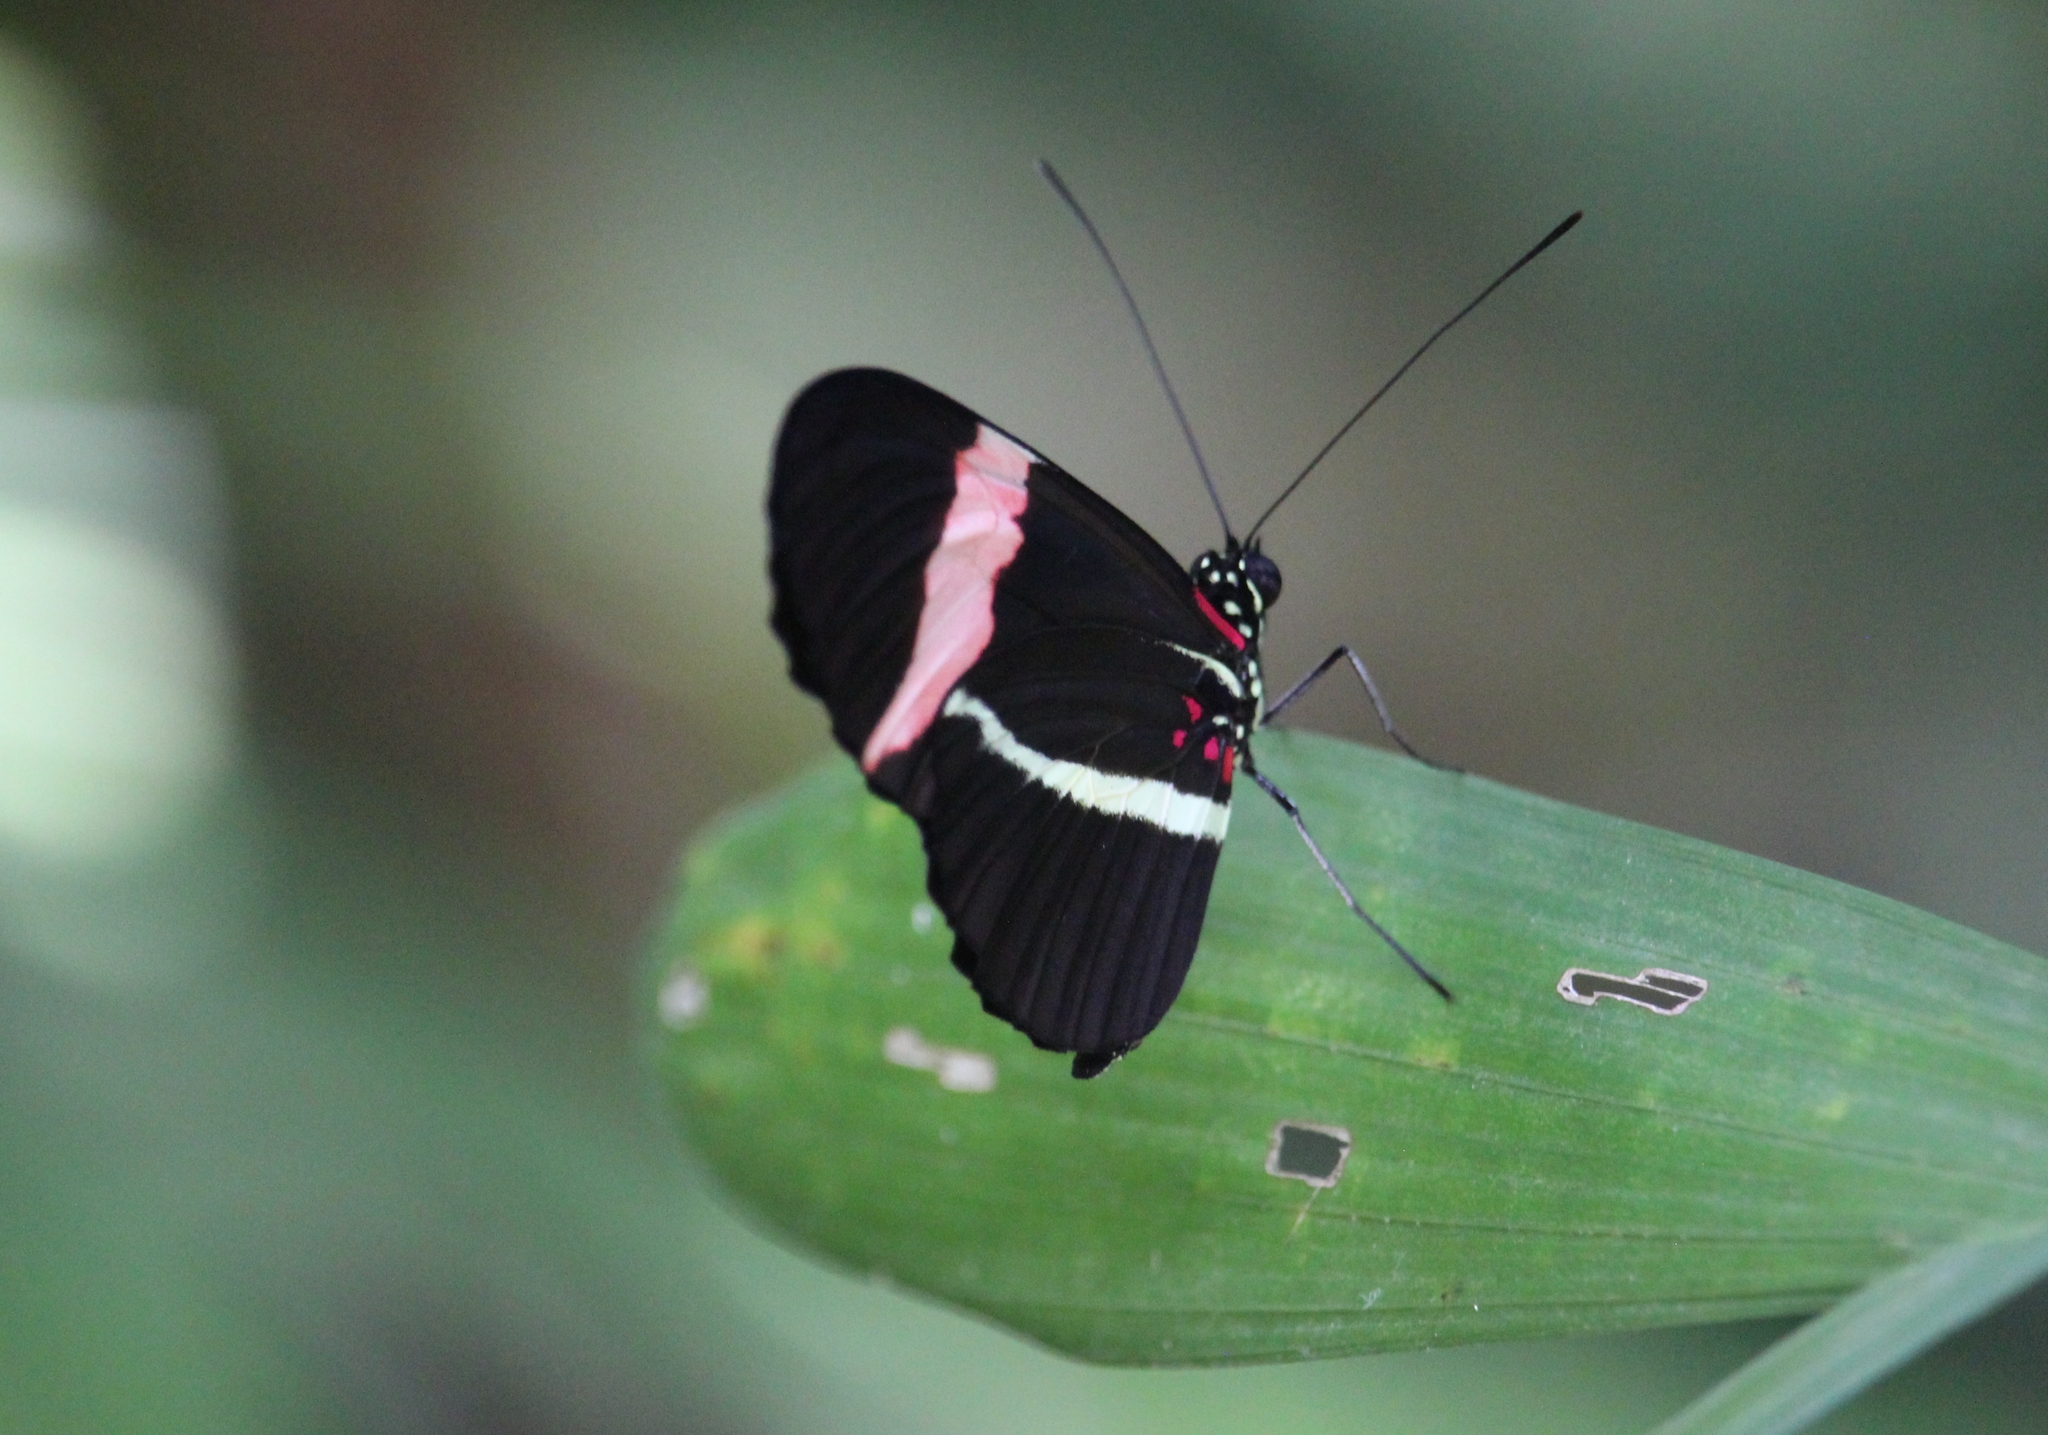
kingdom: Animalia
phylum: Arthropoda
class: Insecta
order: Lepidoptera
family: Nymphalidae
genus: Heliconius
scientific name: Heliconius erato
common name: Common patch longwing
